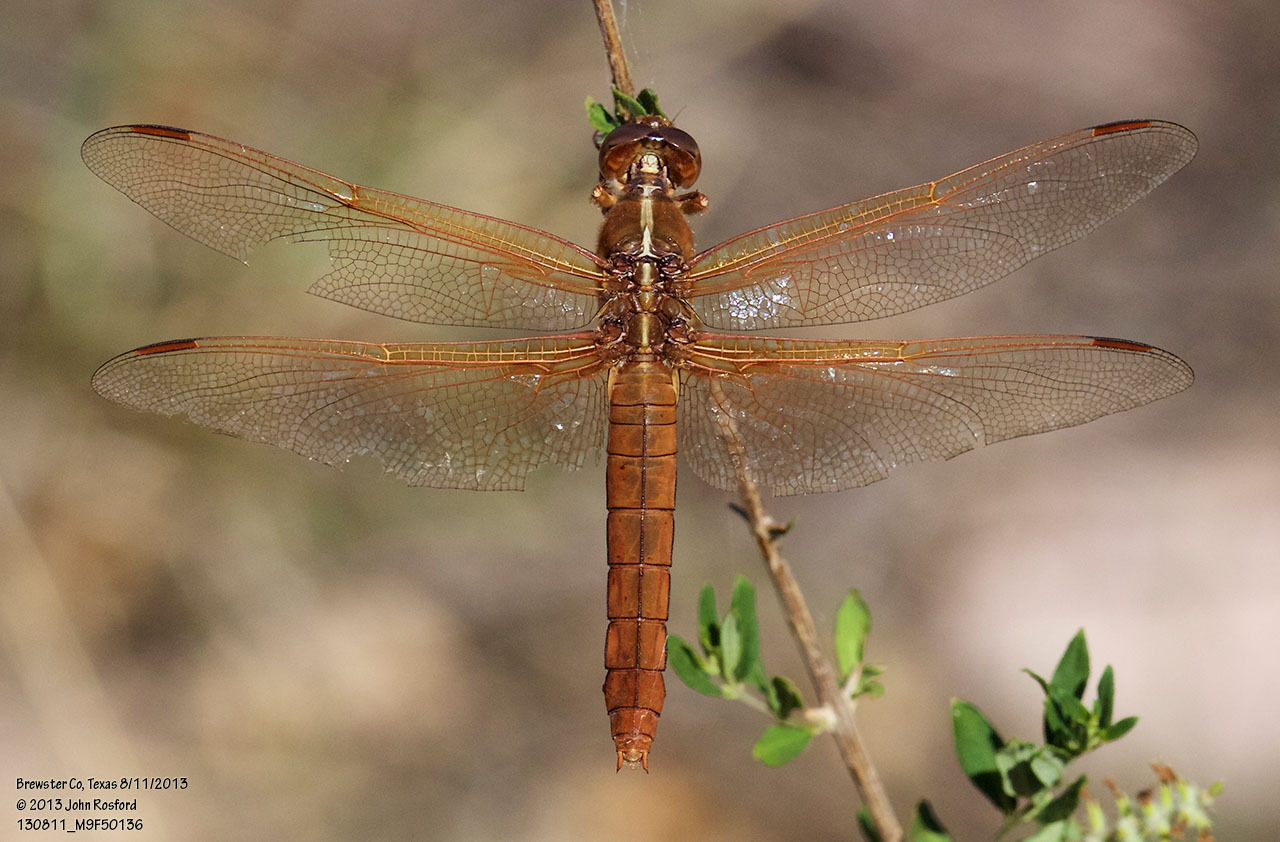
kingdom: Animalia
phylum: Arthropoda
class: Insecta
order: Odonata
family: Libellulidae
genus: Libellula
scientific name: Libellula saturata
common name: Flame skimmer
